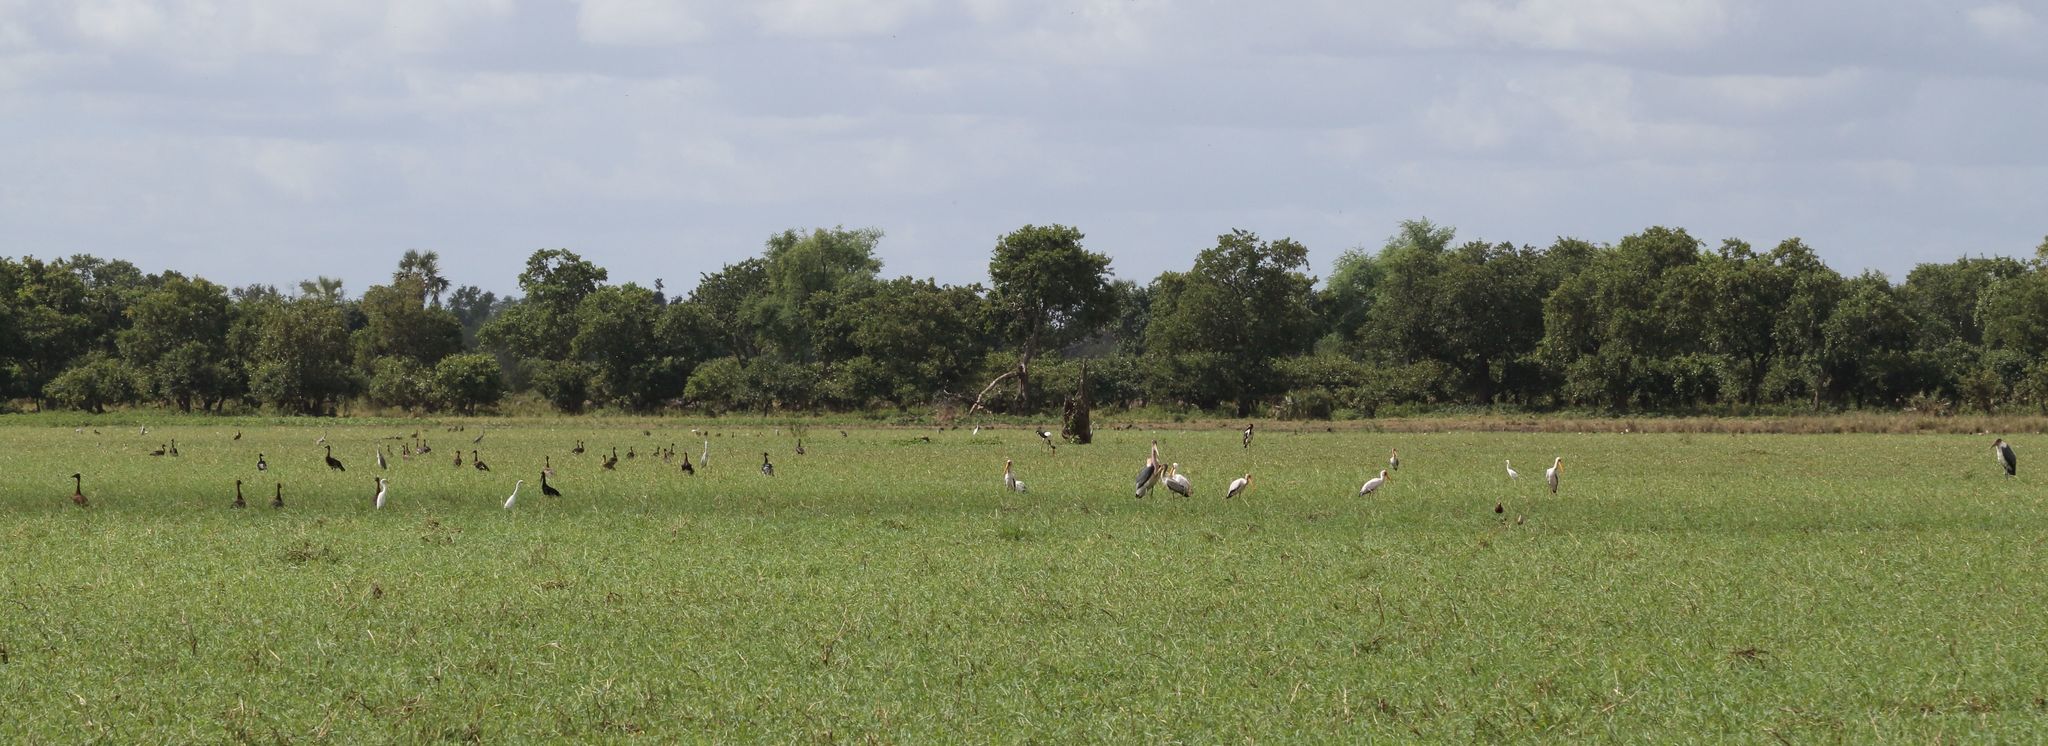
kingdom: Animalia
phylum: Chordata
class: Aves
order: Ciconiiformes
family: Ciconiidae
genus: Mycteria
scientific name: Mycteria ibis
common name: Yellow-billed stork
